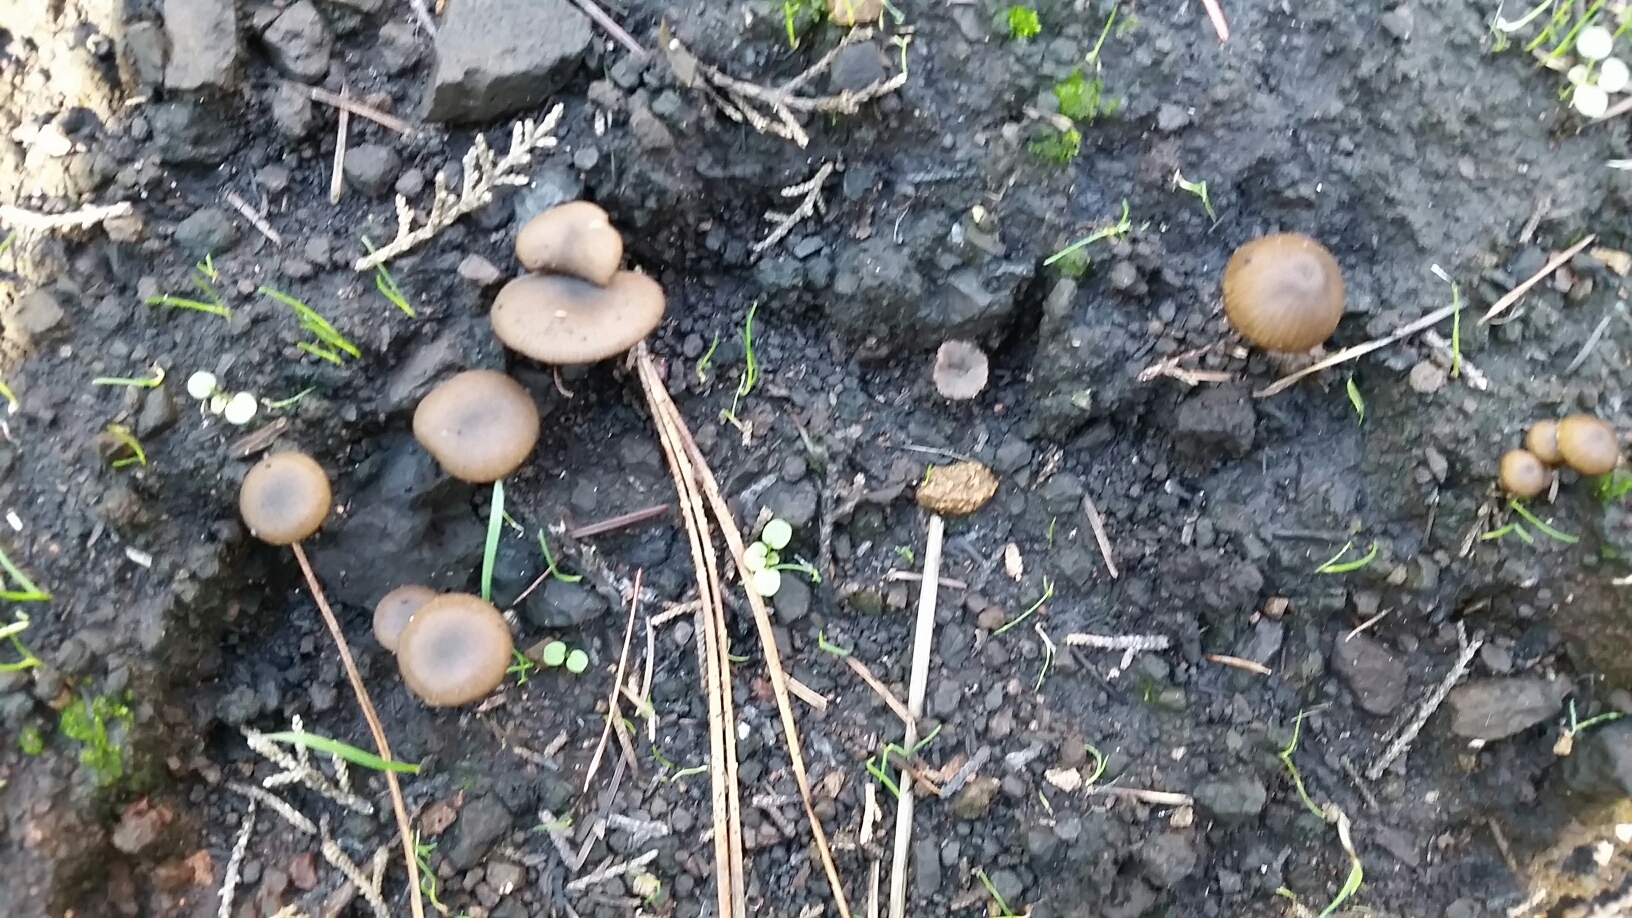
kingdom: Fungi
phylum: Basidiomycota
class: Agaricomycetes
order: Agaricales
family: Tricholomataceae
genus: Myxomphalia
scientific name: Myxomphalia maura
